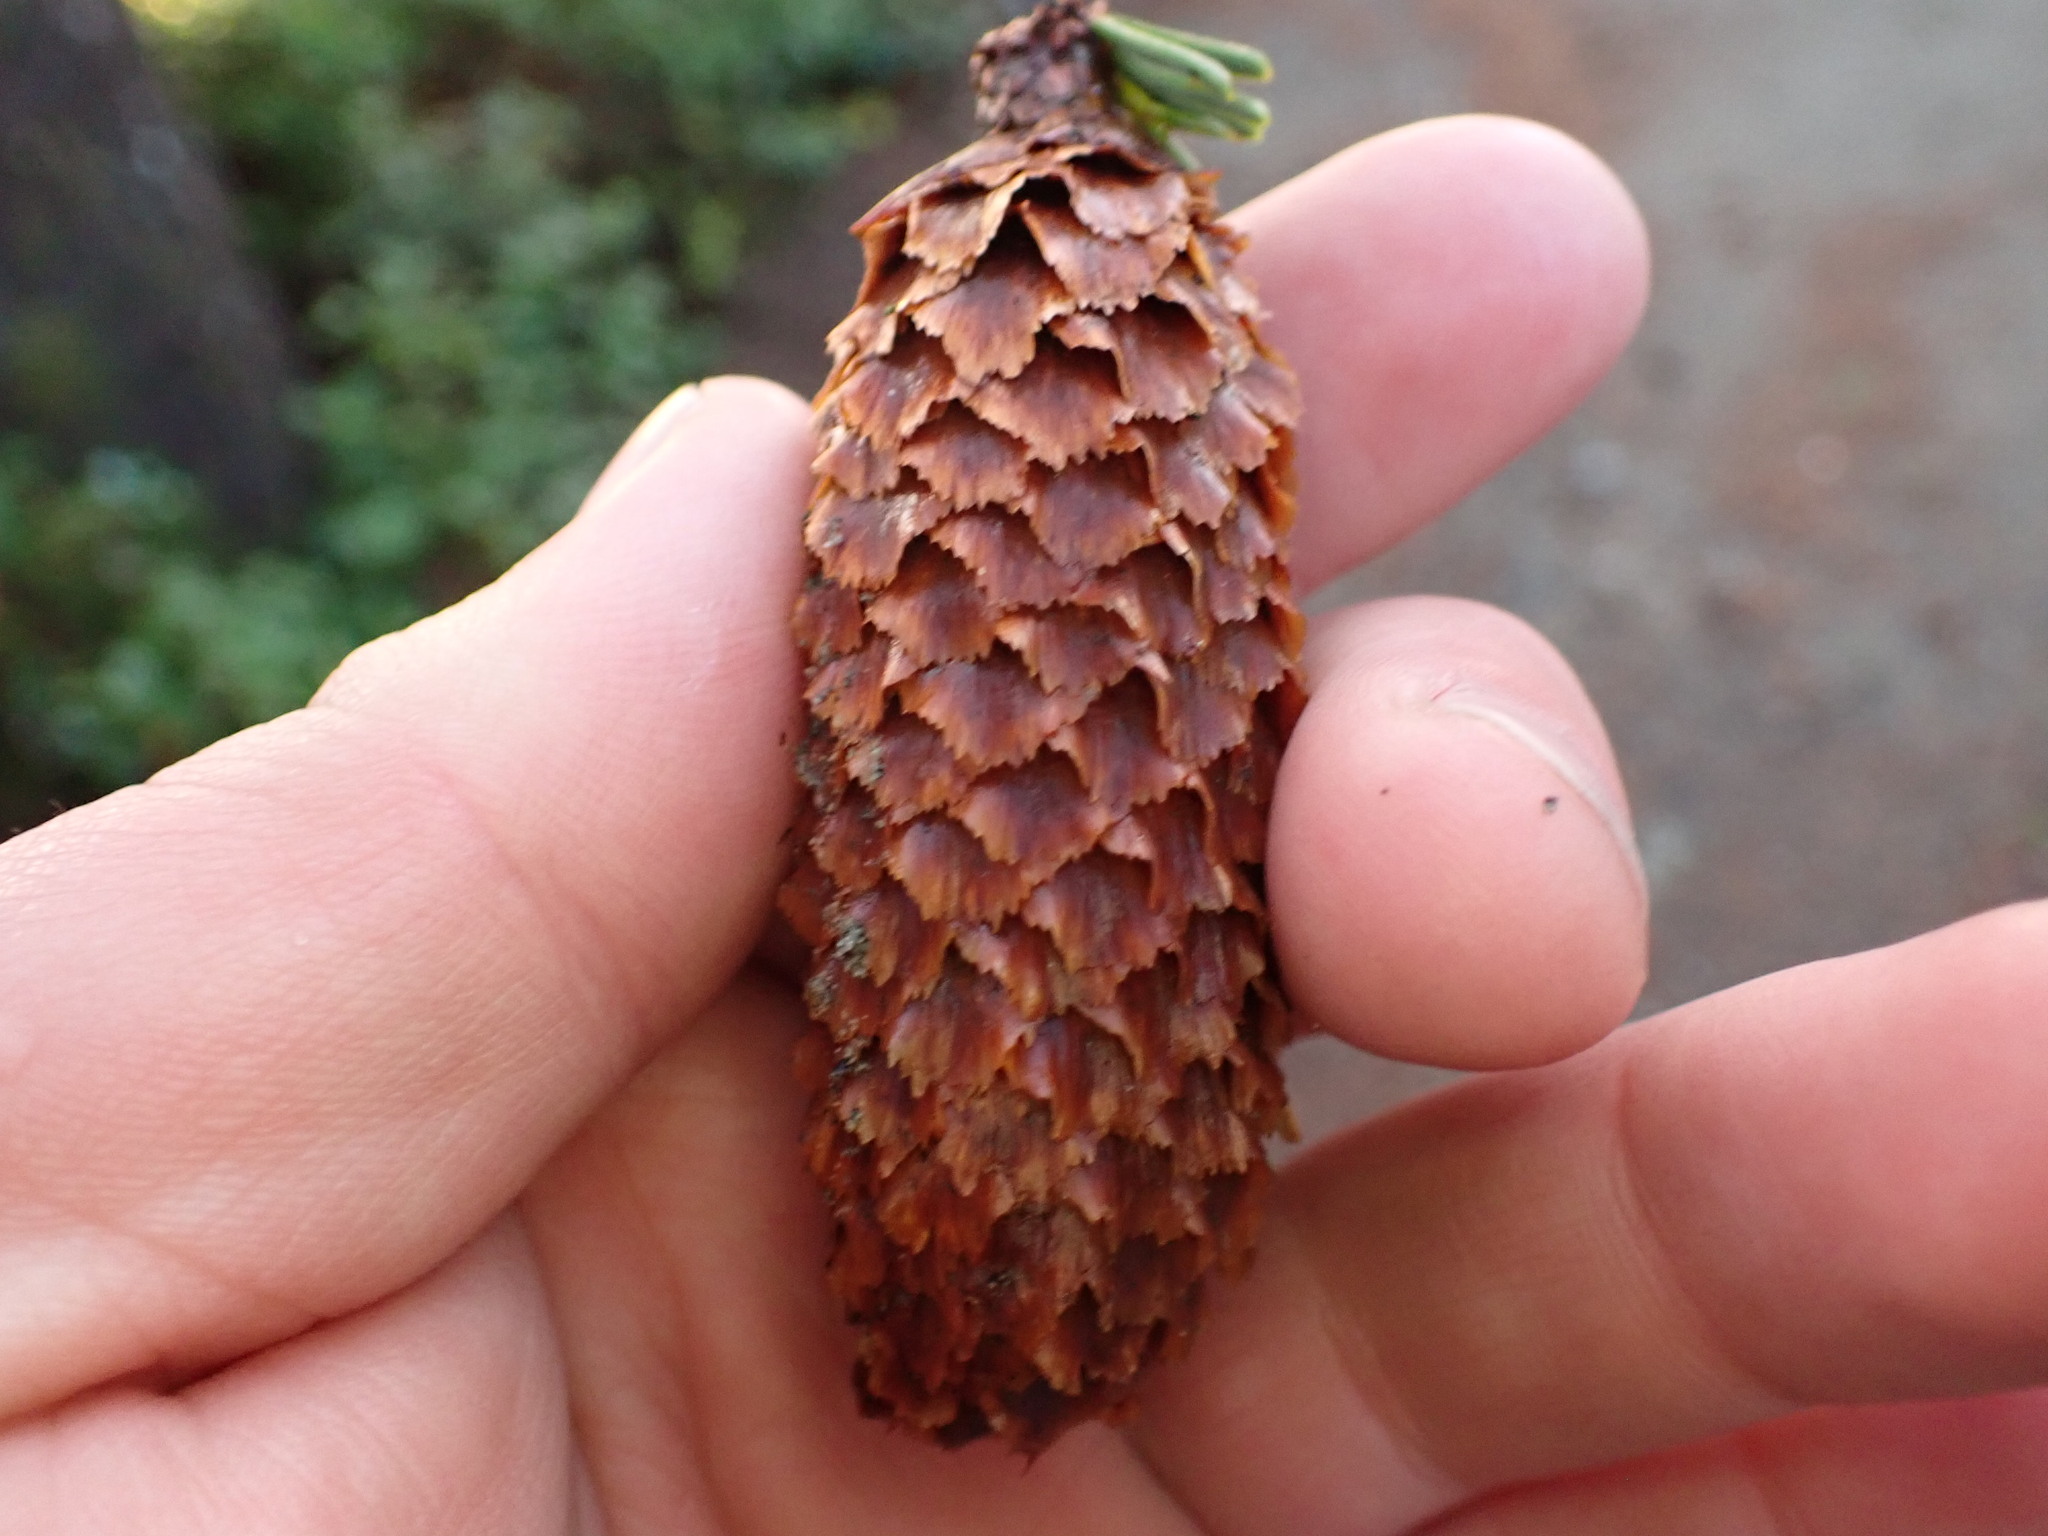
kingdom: Plantae
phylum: Tracheophyta
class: Pinopsida
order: Pinales
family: Pinaceae
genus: Picea
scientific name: Picea sitchensis
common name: Sitka spruce
